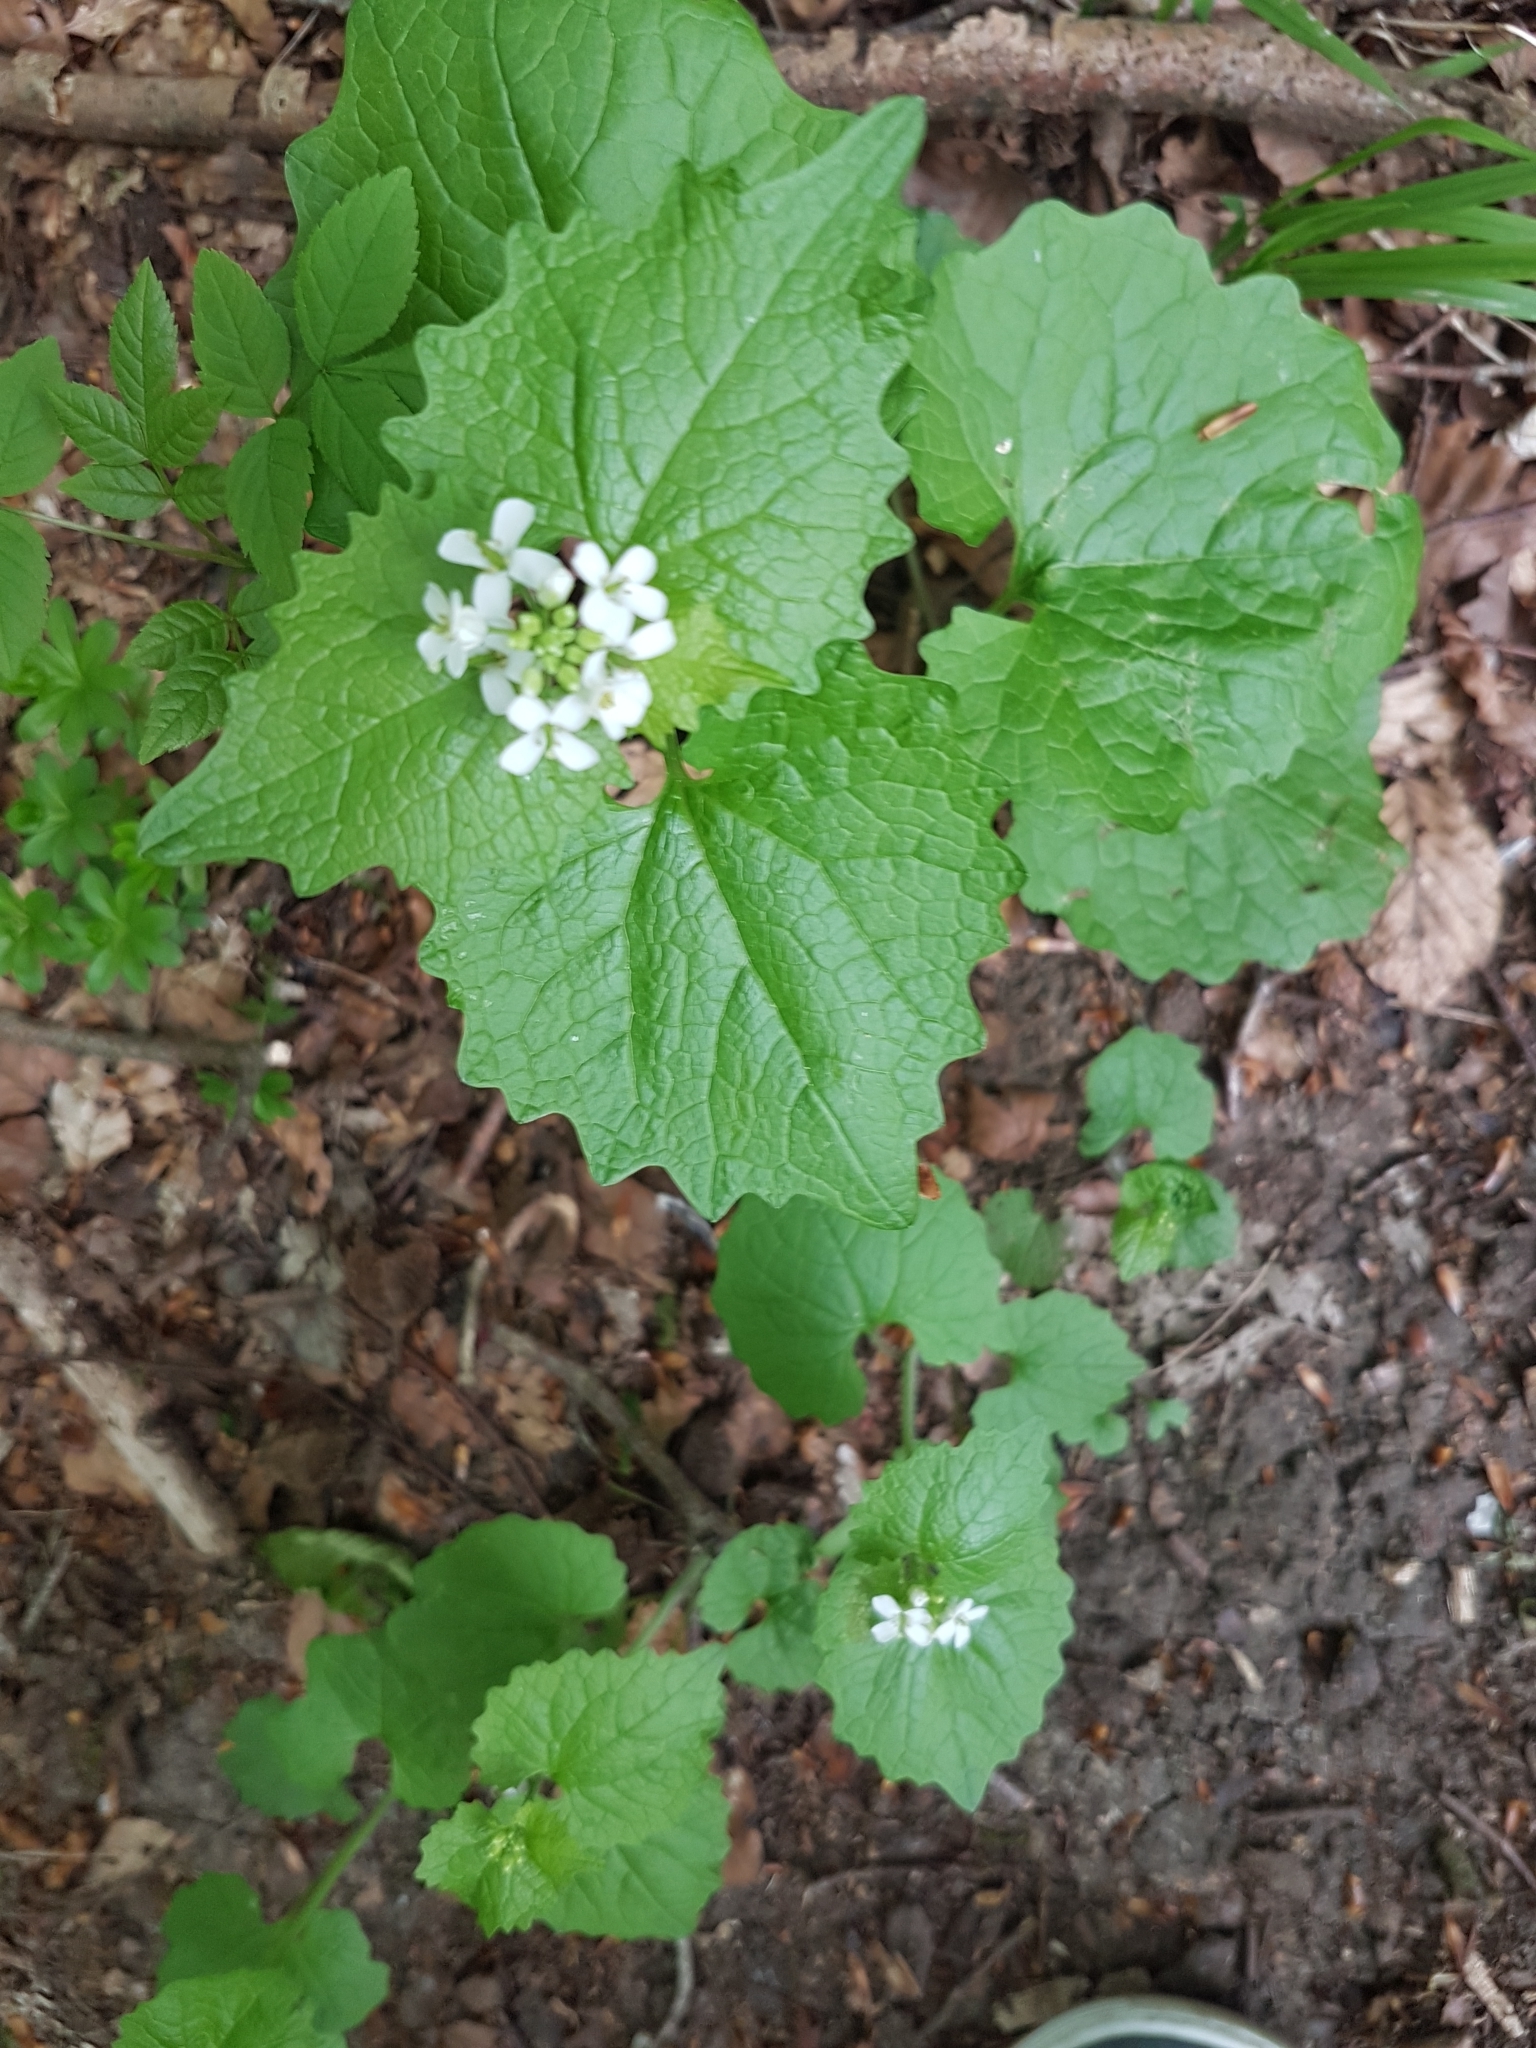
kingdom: Plantae
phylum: Tracheophyta
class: Magnoliopsida
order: Brassicales
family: Brassicaceae
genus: Alliaria
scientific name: Alliaria petiolata
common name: Garlic mustard
